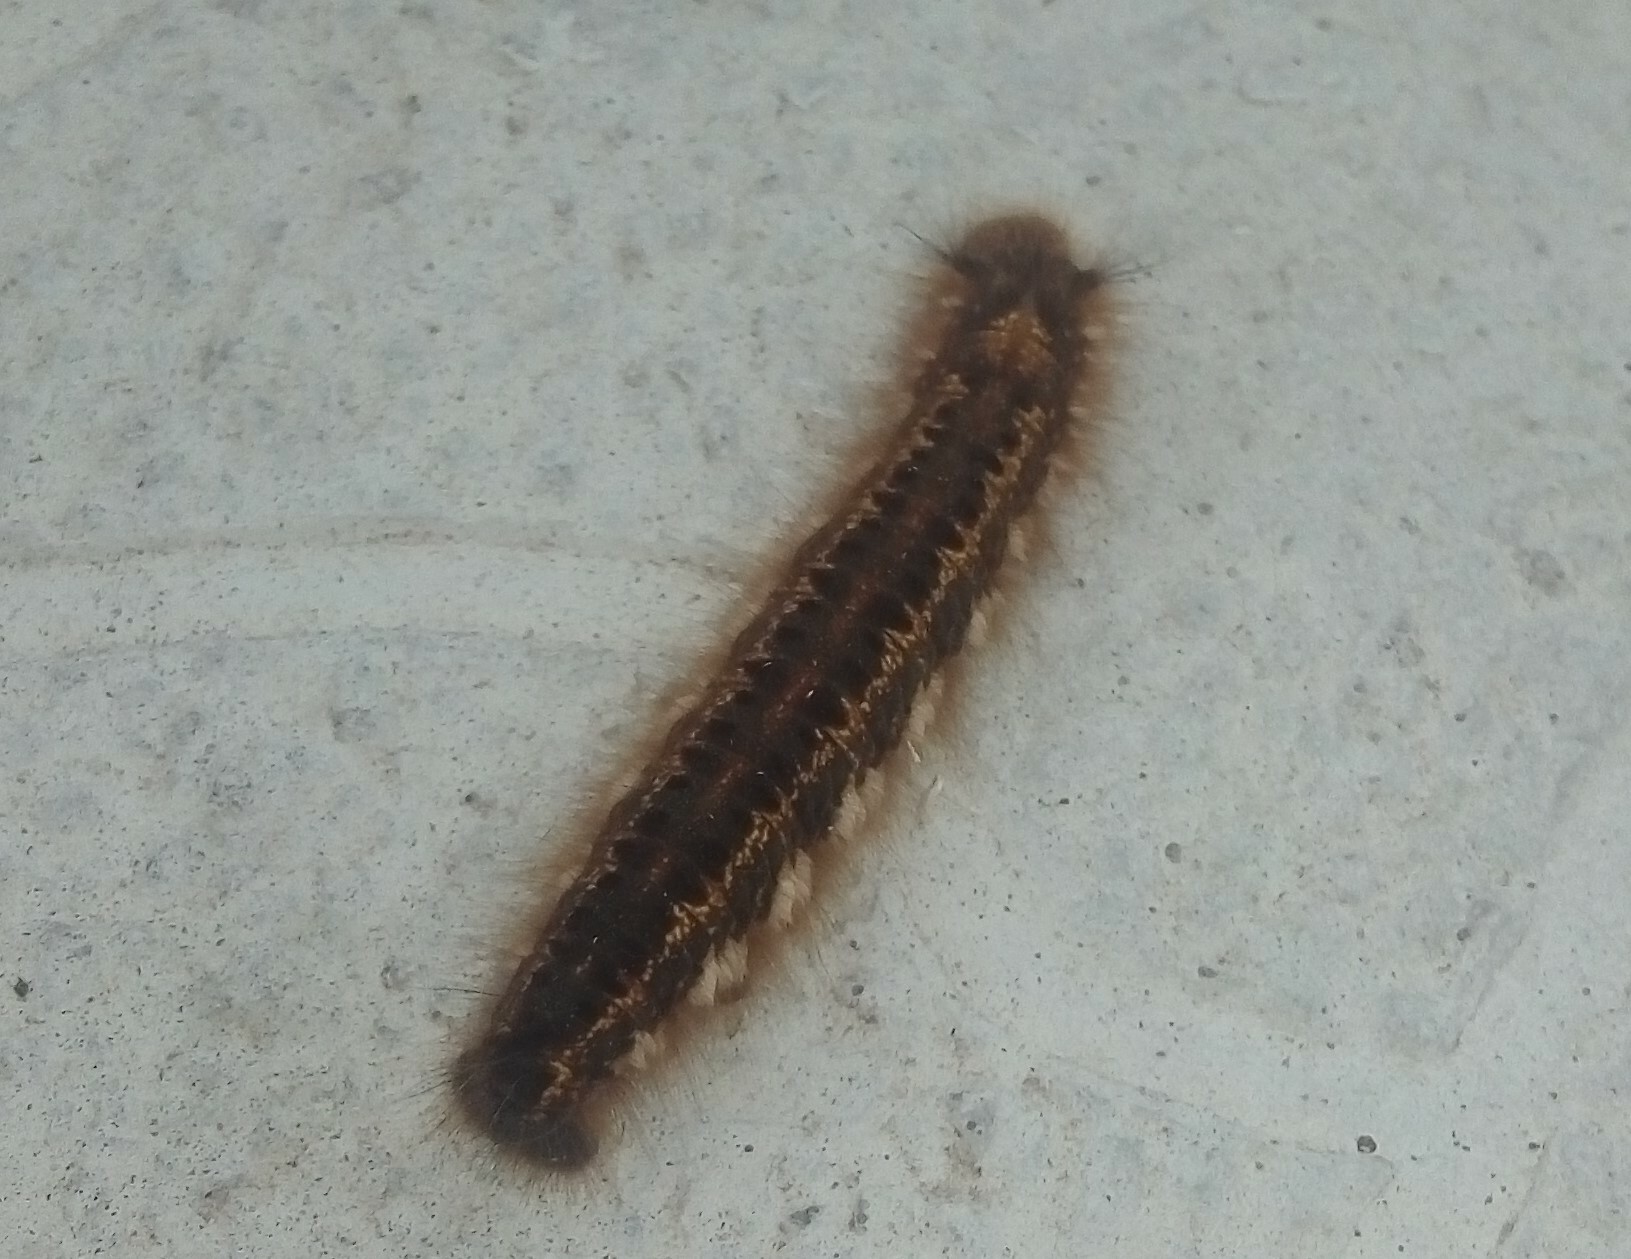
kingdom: Animalia
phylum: Arthropoda
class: Insecta
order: Lepidoptera
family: Lasiocampidae
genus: Euthrix
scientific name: Euthrix potatoria
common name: Drinker
